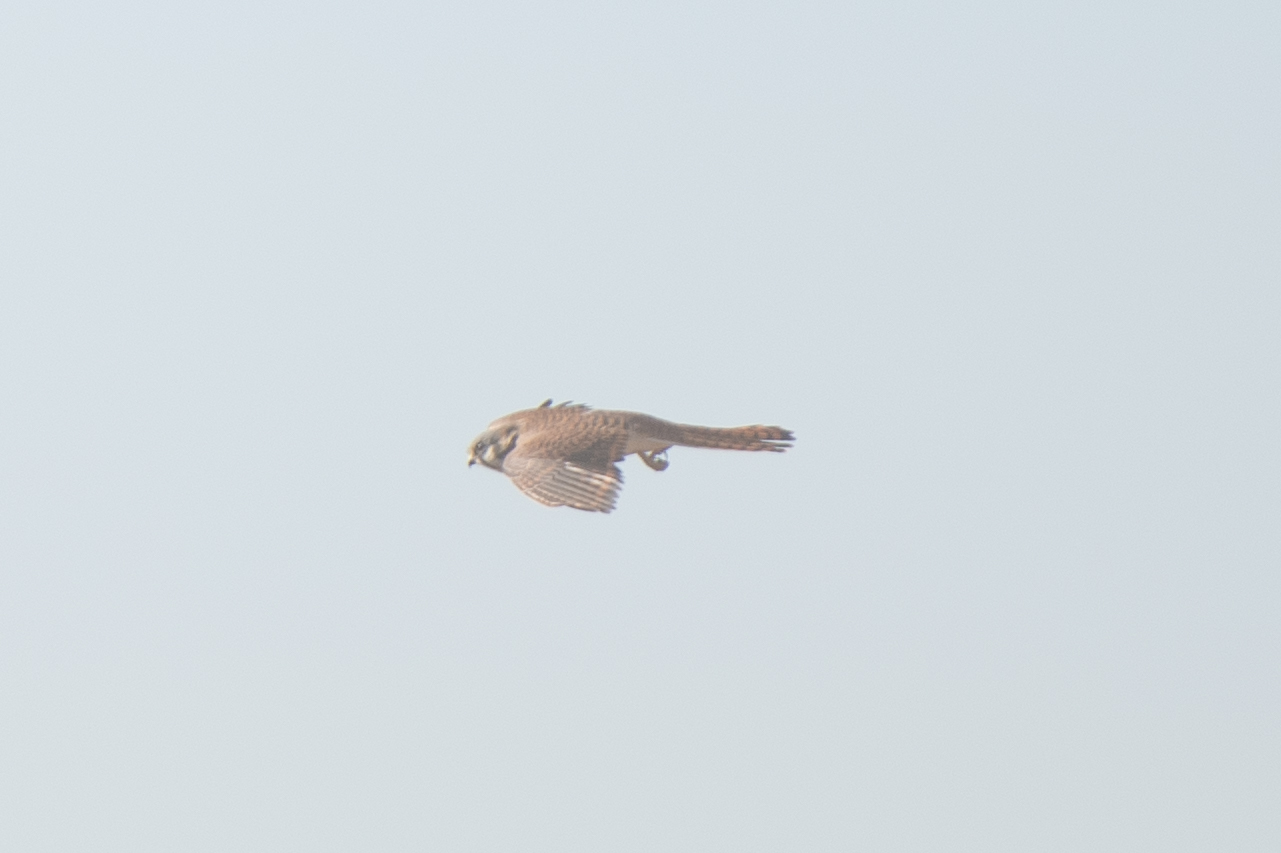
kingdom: Animalia
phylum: Chordata
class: Aves
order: Falconiformes
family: Falconidae
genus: Falco
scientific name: Falco sparverius
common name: American kestrel
